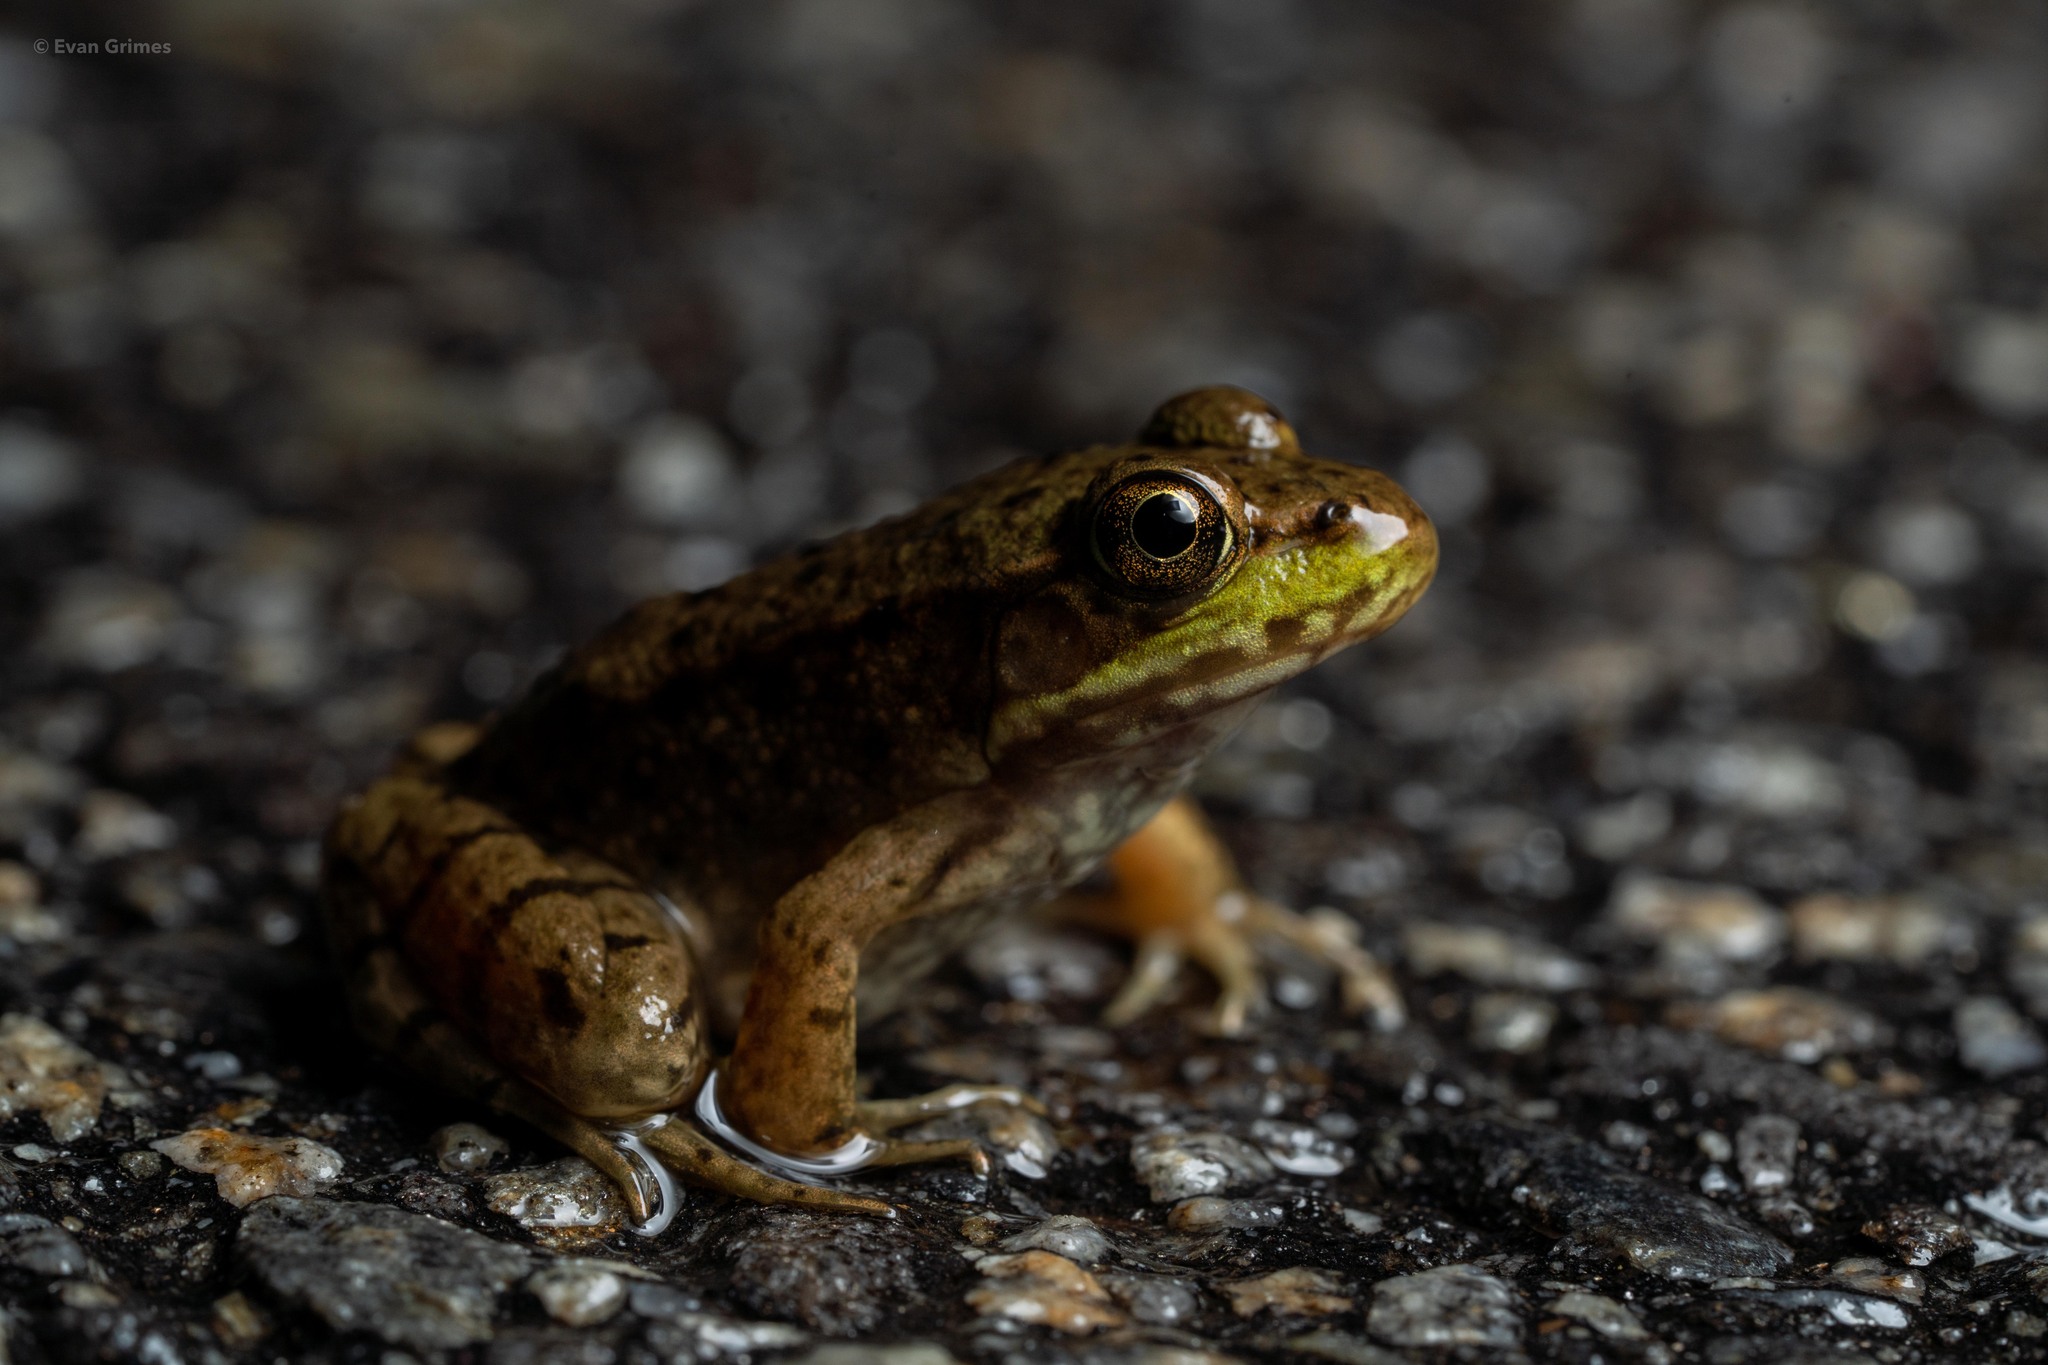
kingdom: Animalia
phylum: Chordata
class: Amphibia
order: Anura
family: Ranidae
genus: Lithobates
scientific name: Lithobates clamitans
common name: Green frog
